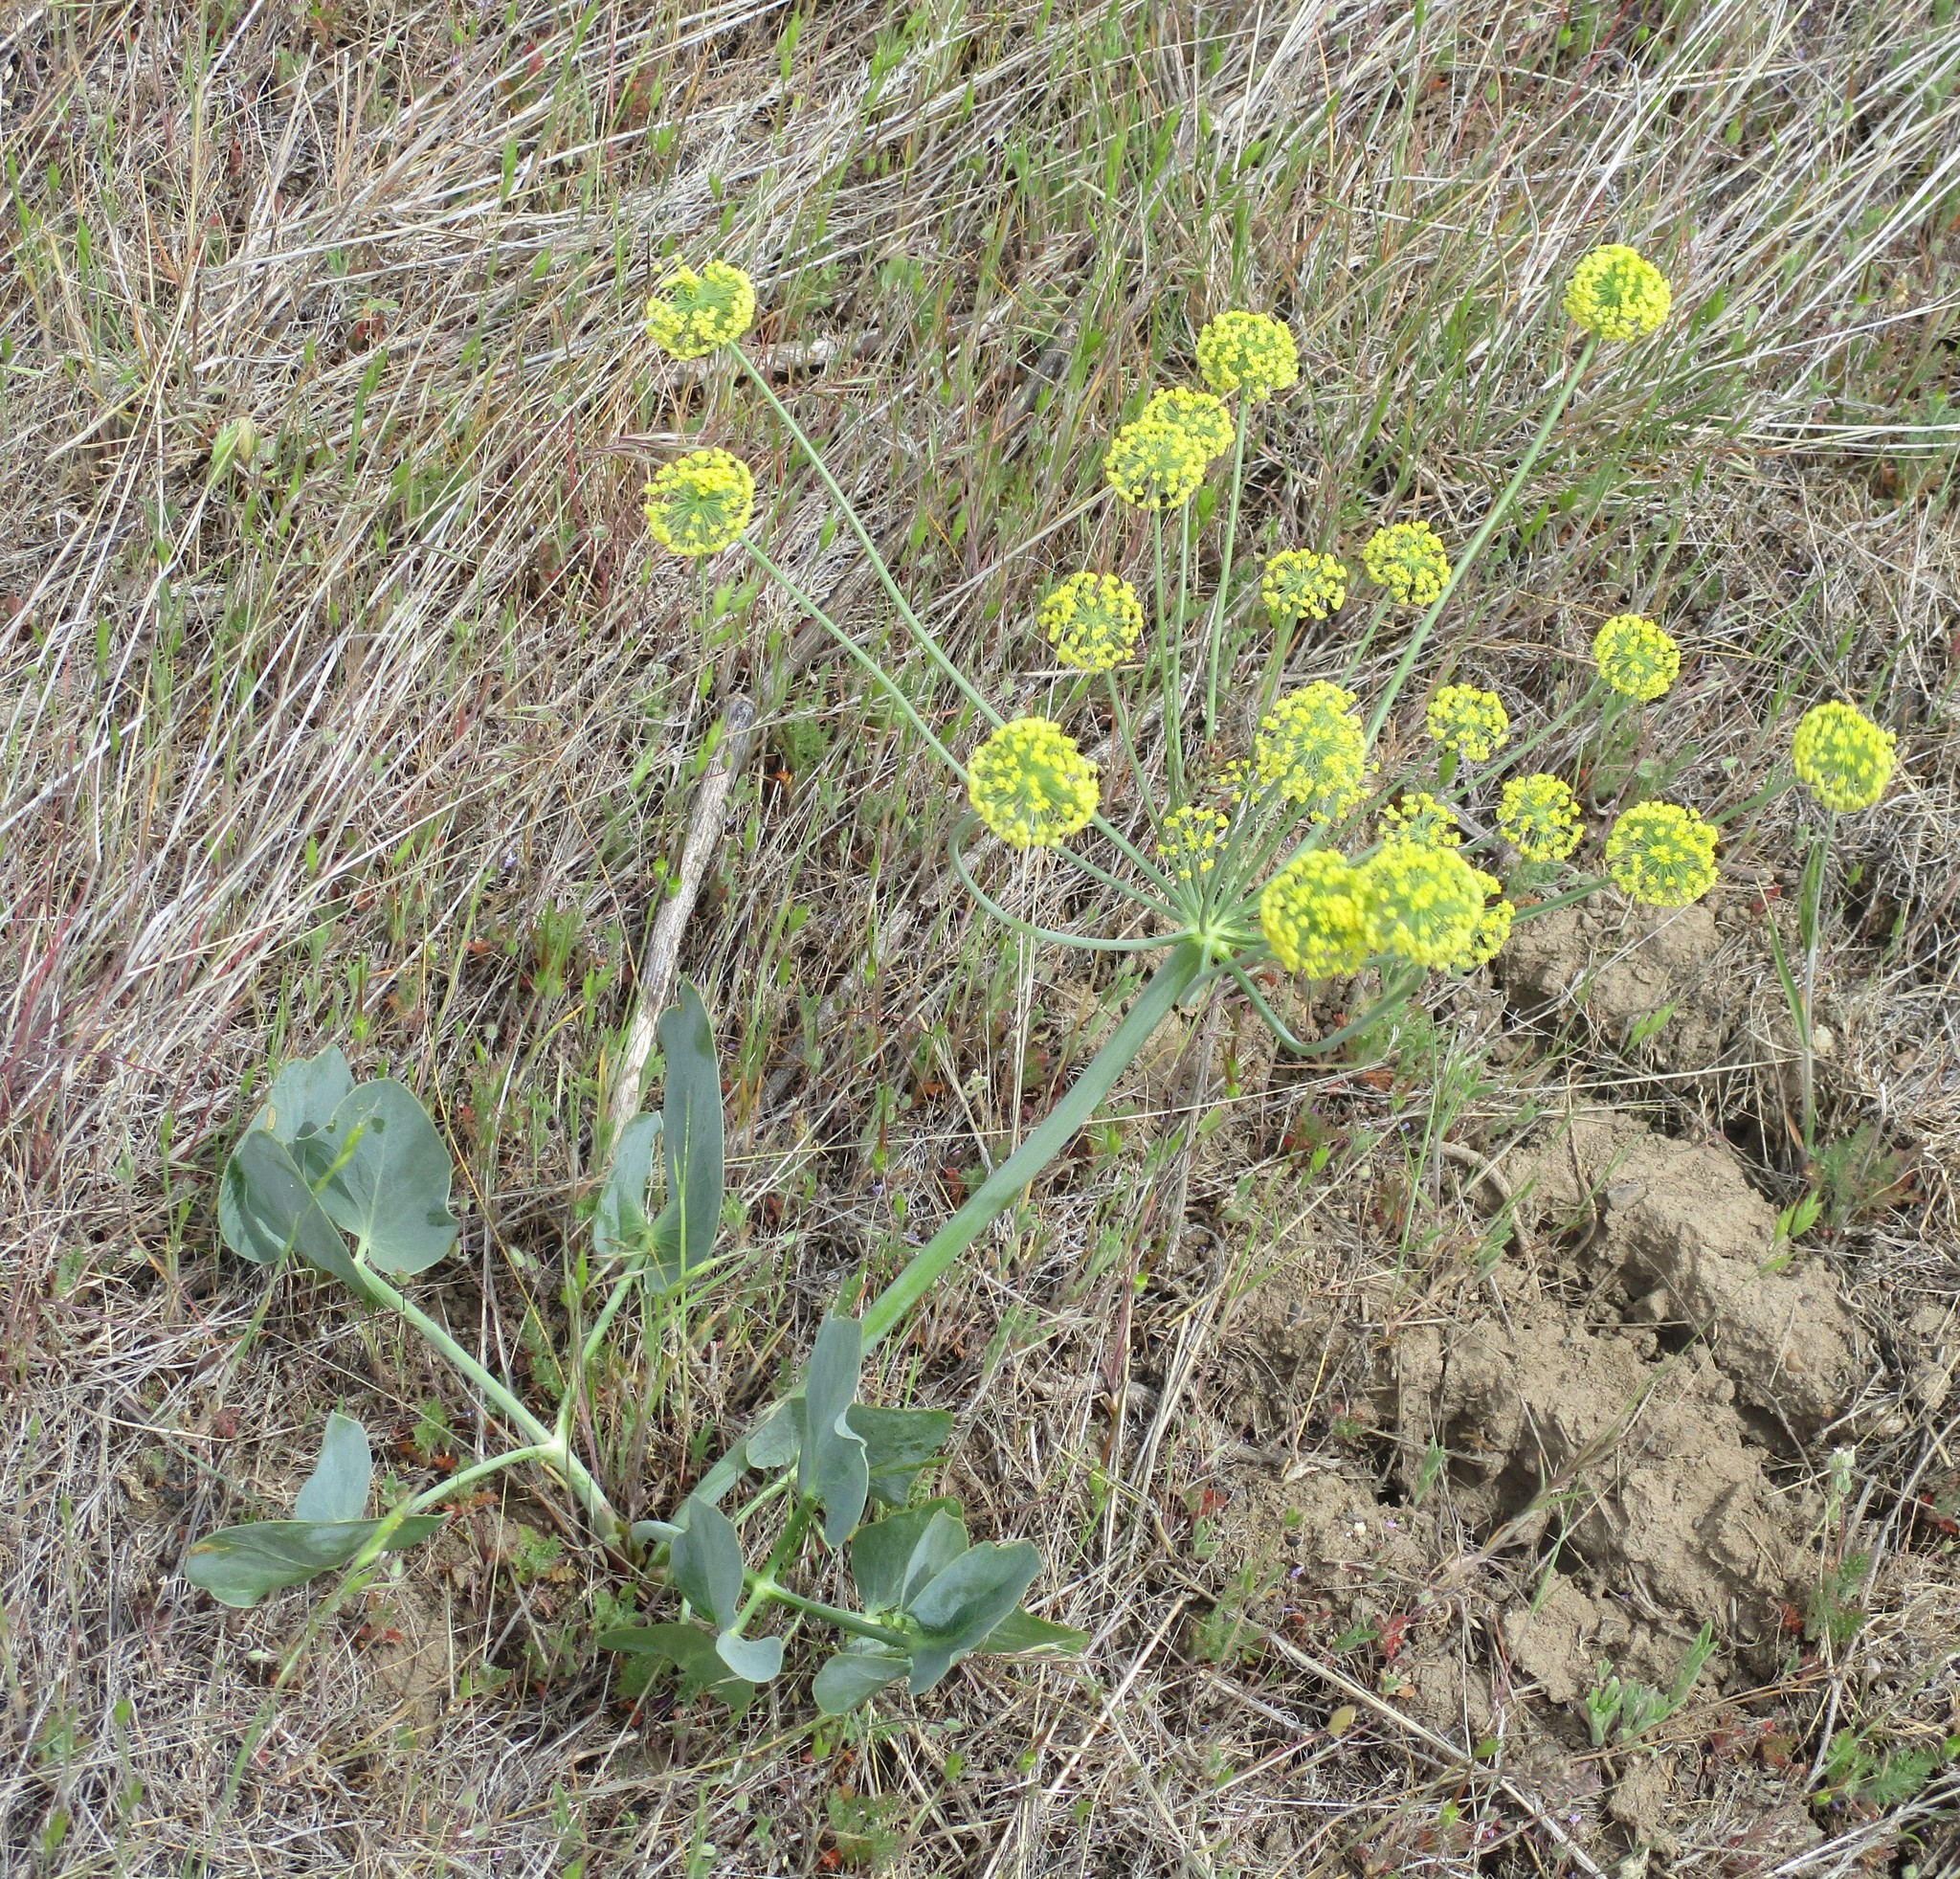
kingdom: Plantae
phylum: Tracheophyta
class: Magnoliopsida
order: Apiales
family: Apiaceae
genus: Lomatium
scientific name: Lomatium nudicaule
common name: Pestle lomatium
